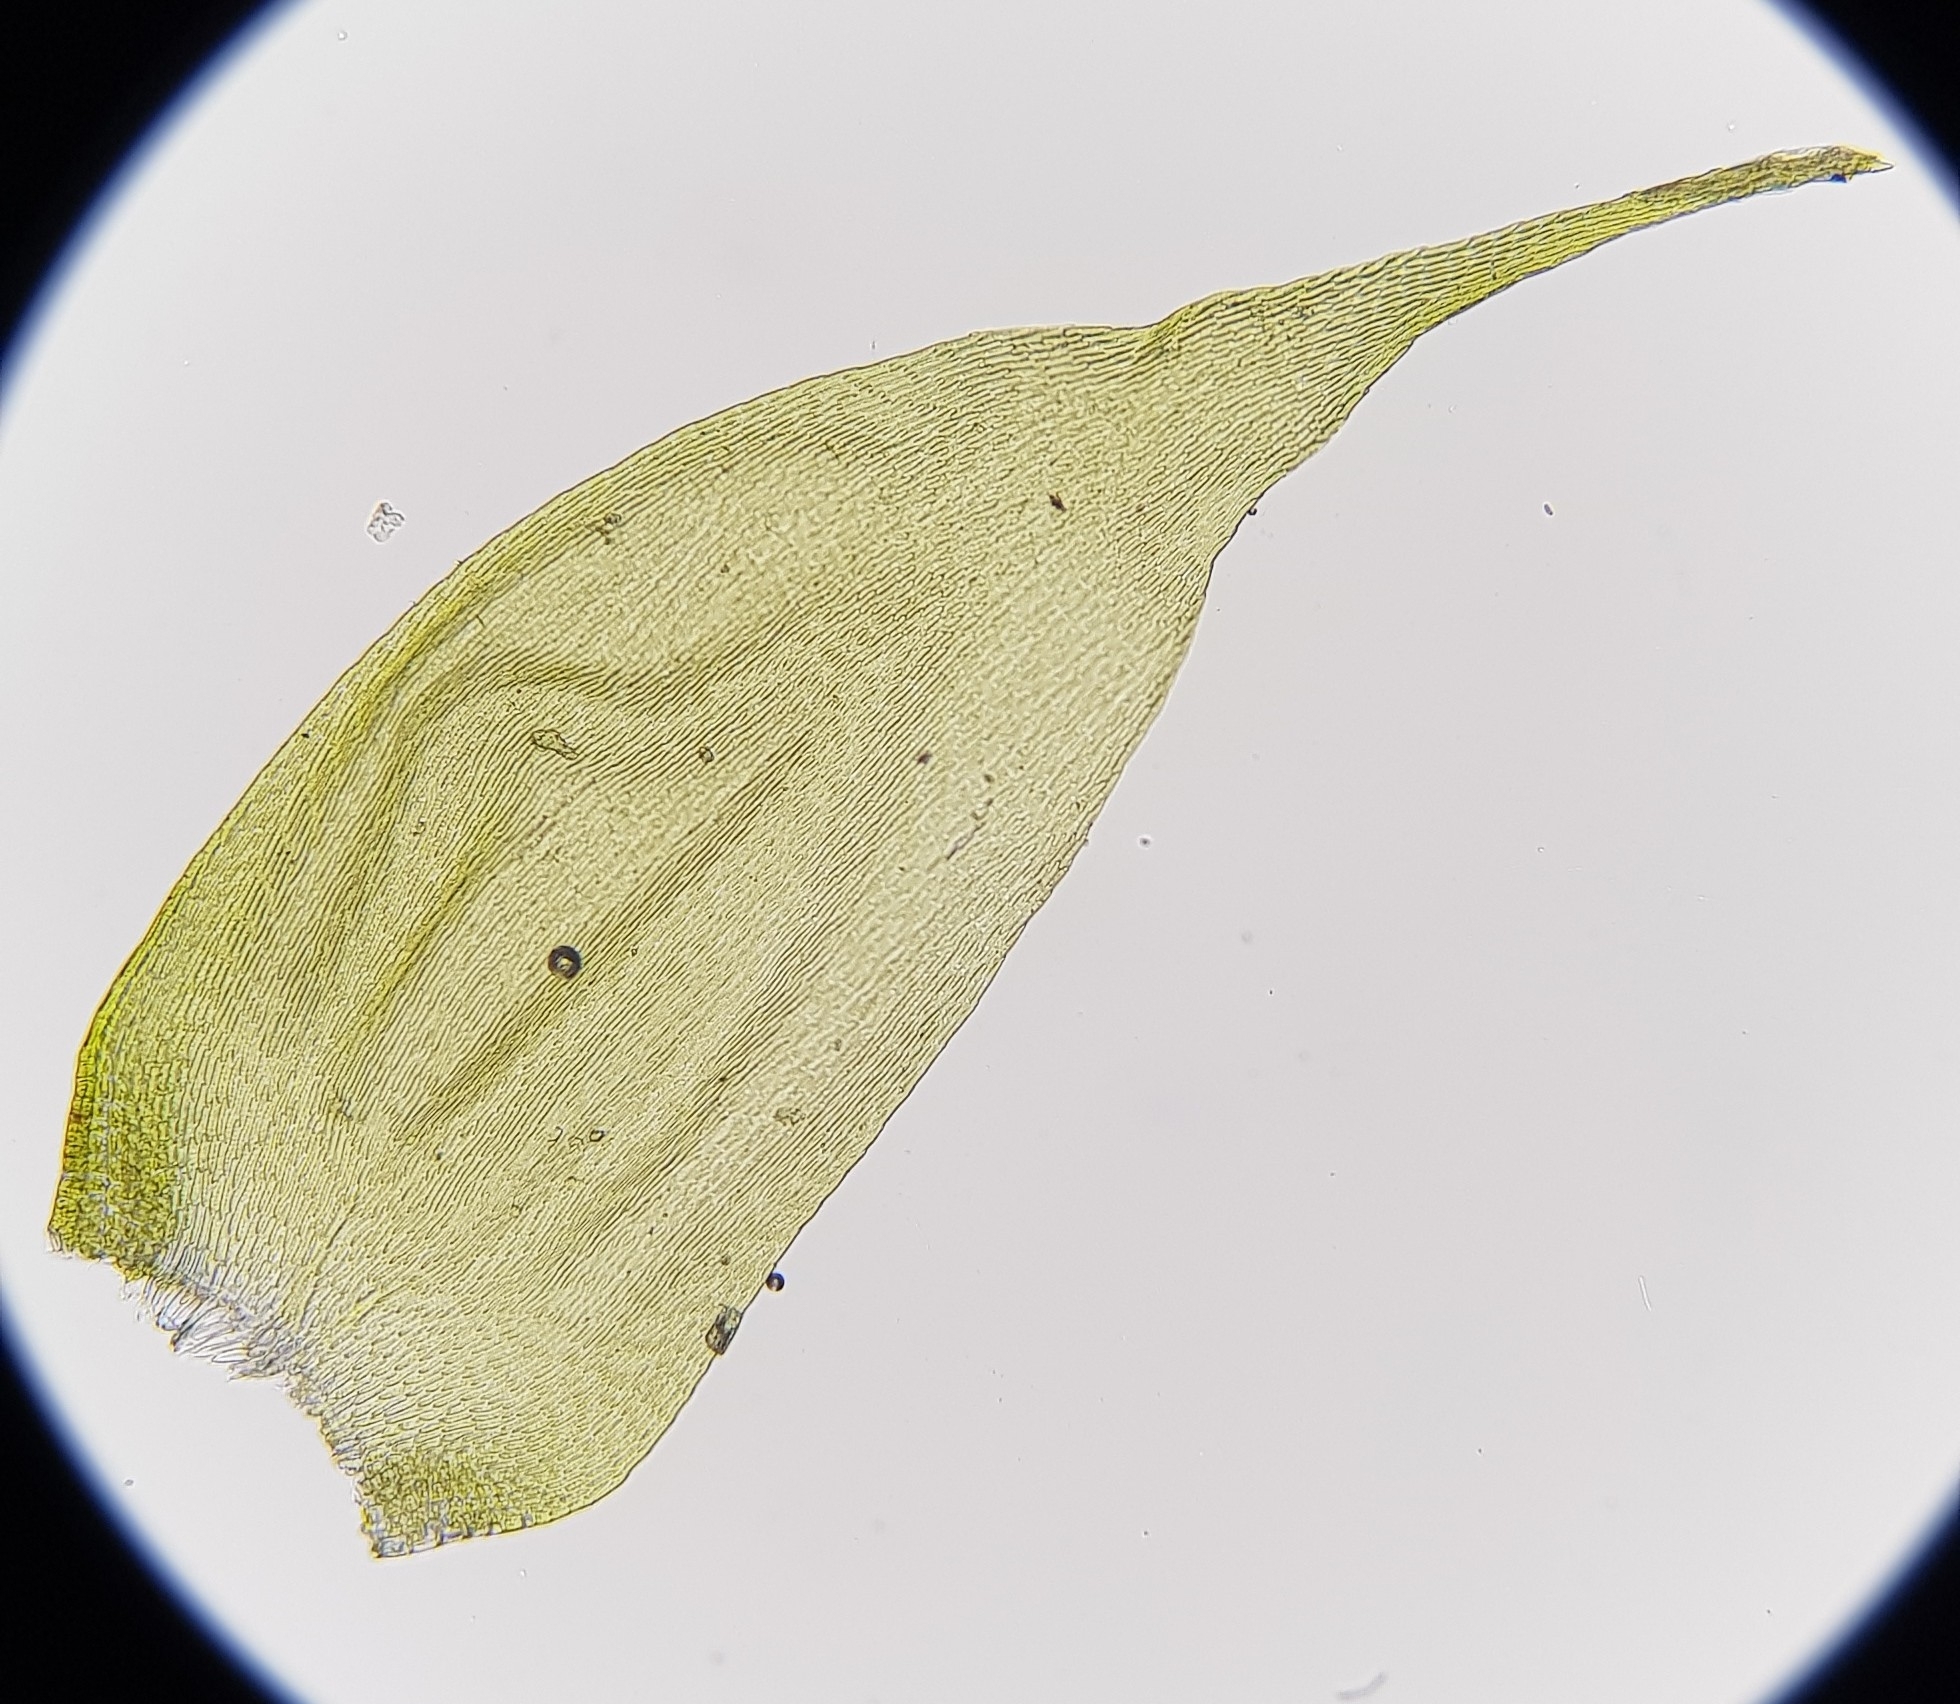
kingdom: Plantae
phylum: Bryophyta
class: Bryopsida
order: Hypnales
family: Hypnaceae
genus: Hypnum
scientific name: Hypnum andoi
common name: Ando's plait moss
